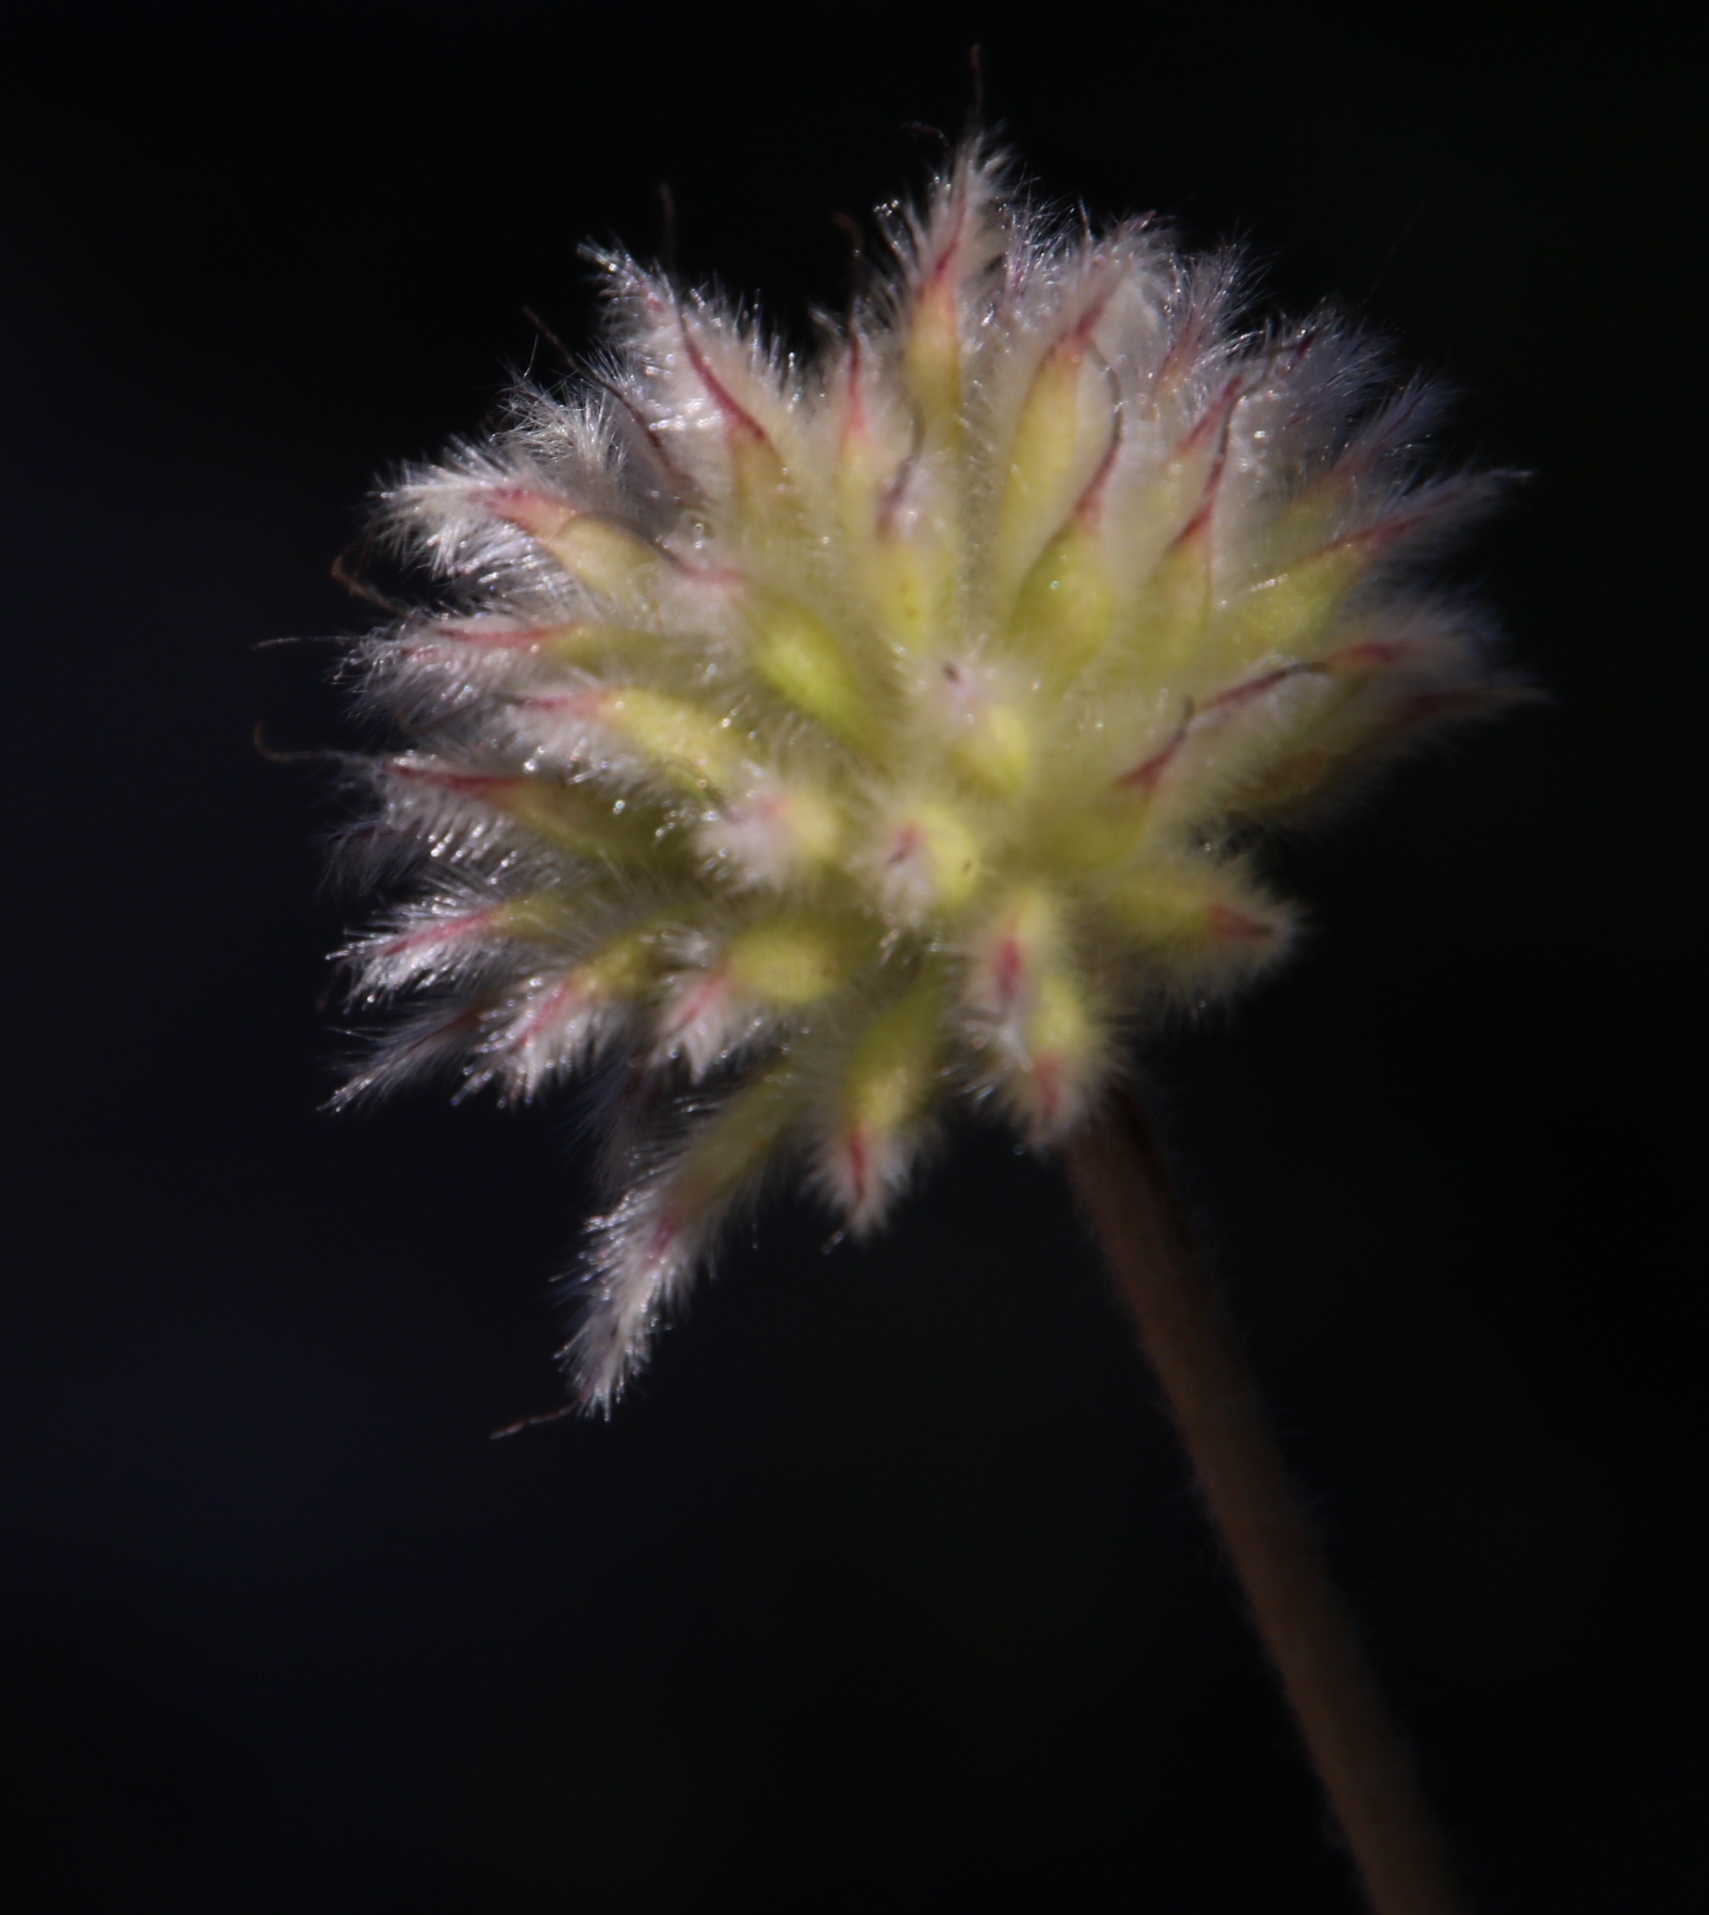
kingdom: Plantae
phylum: Tracheophyta
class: Magnoliopsida
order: Ranunculales
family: Ranunculaceae
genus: Knowltonia
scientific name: Knowltonia tenuifolia
